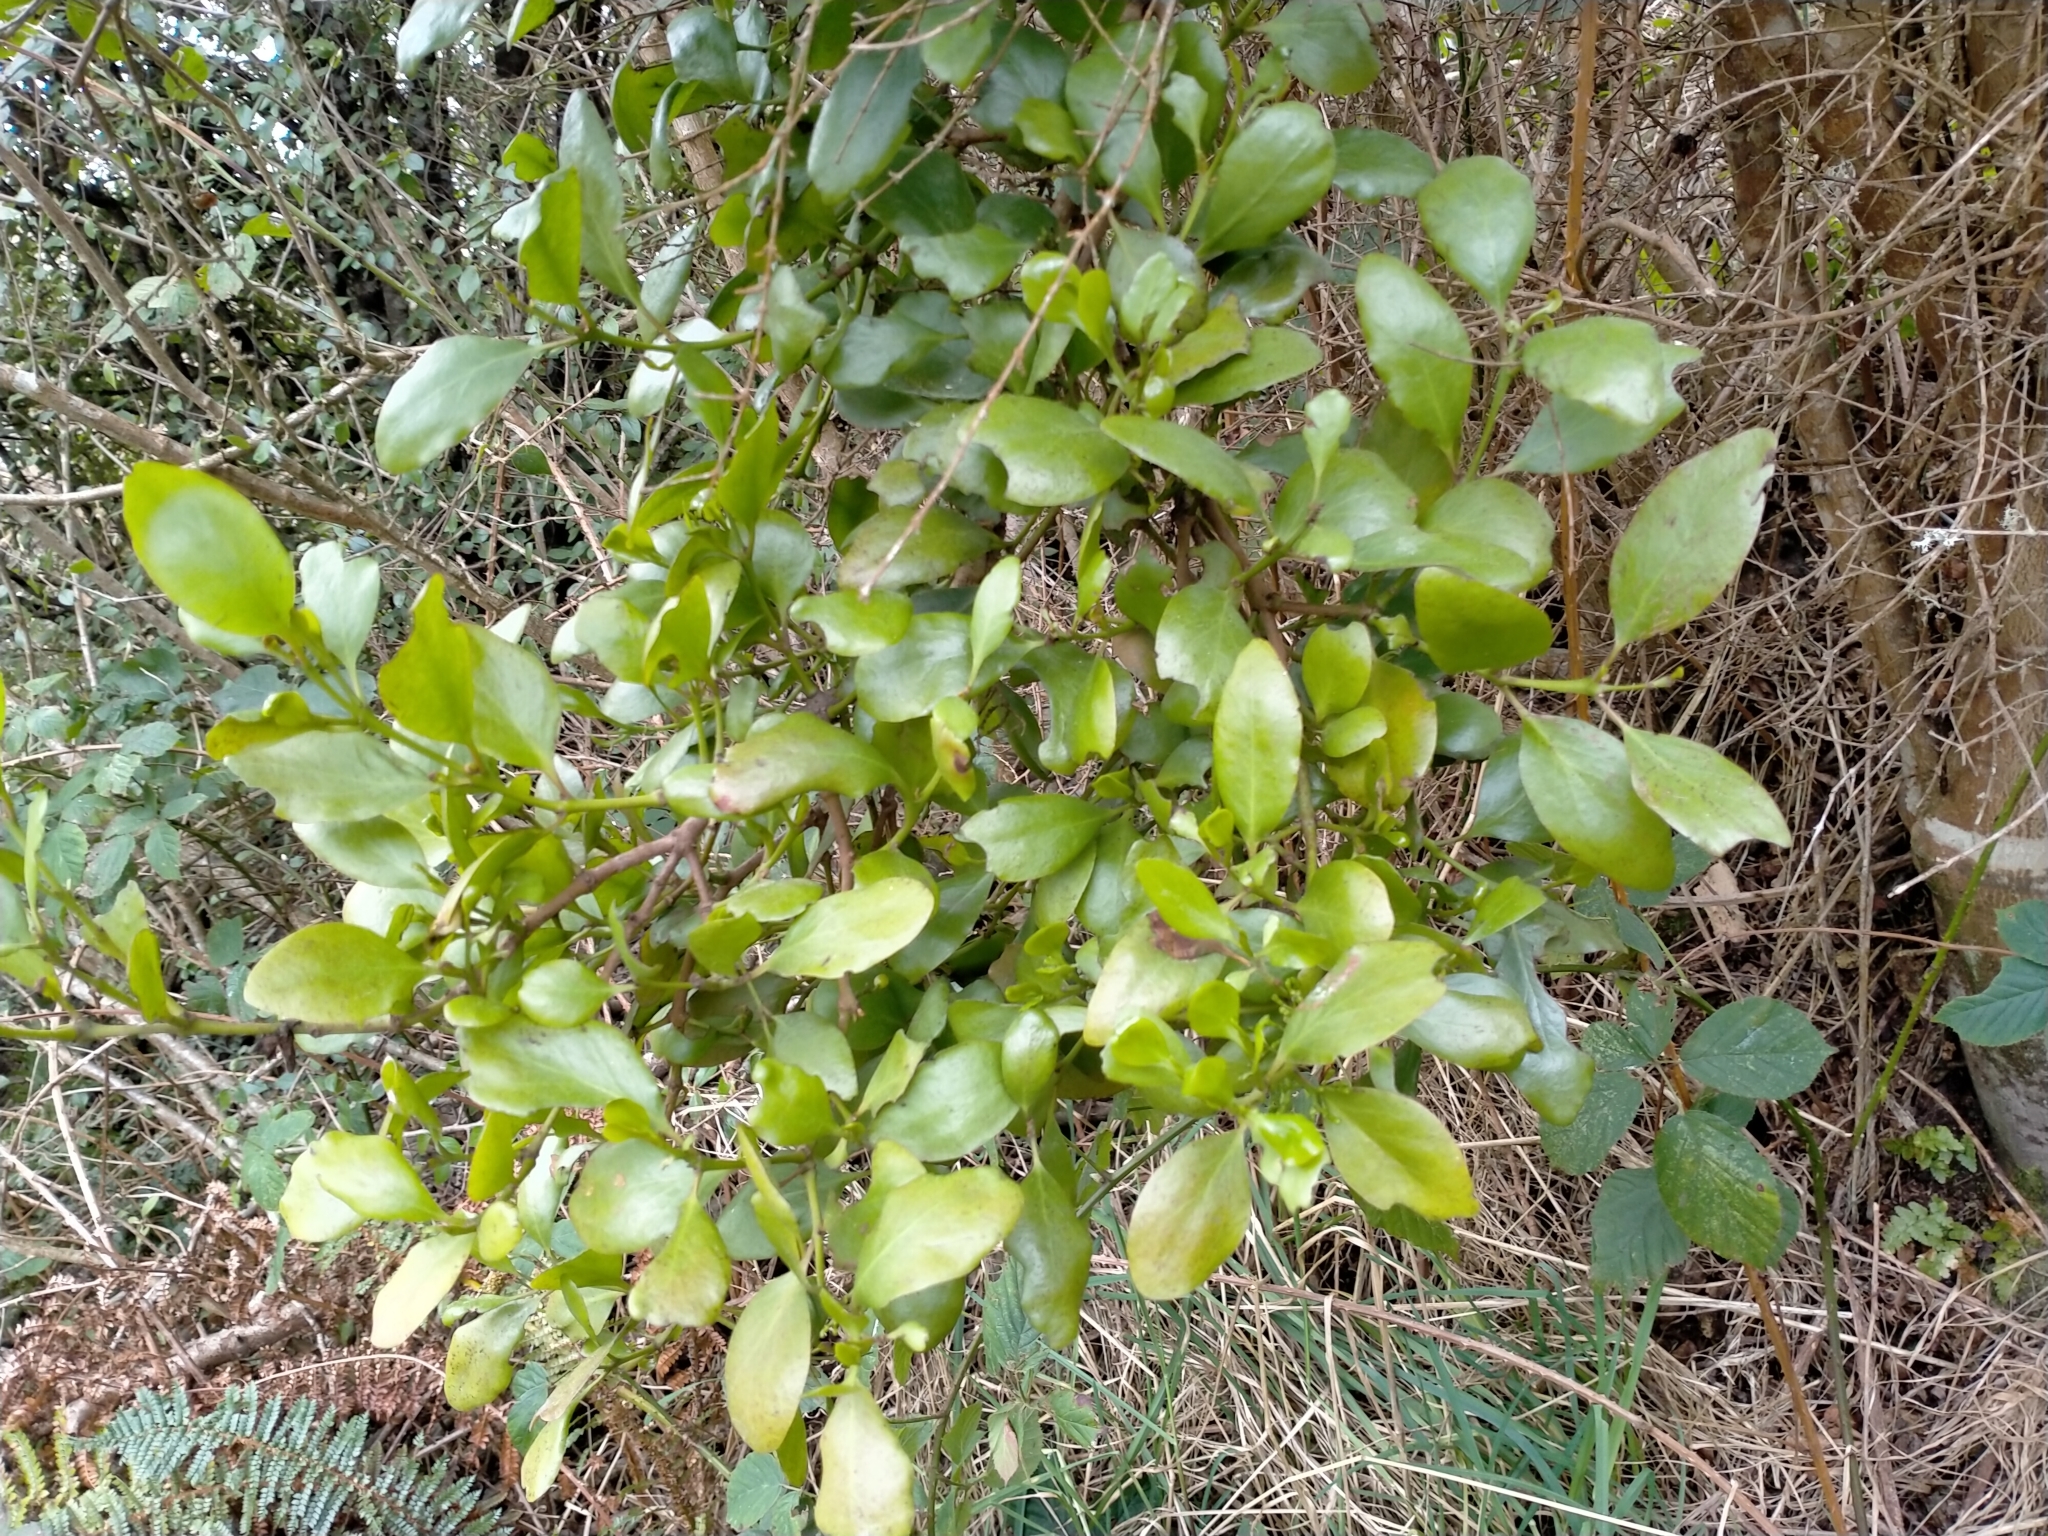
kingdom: Plantae
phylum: Tracheophyta
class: Magnoliopsida
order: Santalales
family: Loranthaceae
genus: Ileostylus
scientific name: Ileostylus micranthus
